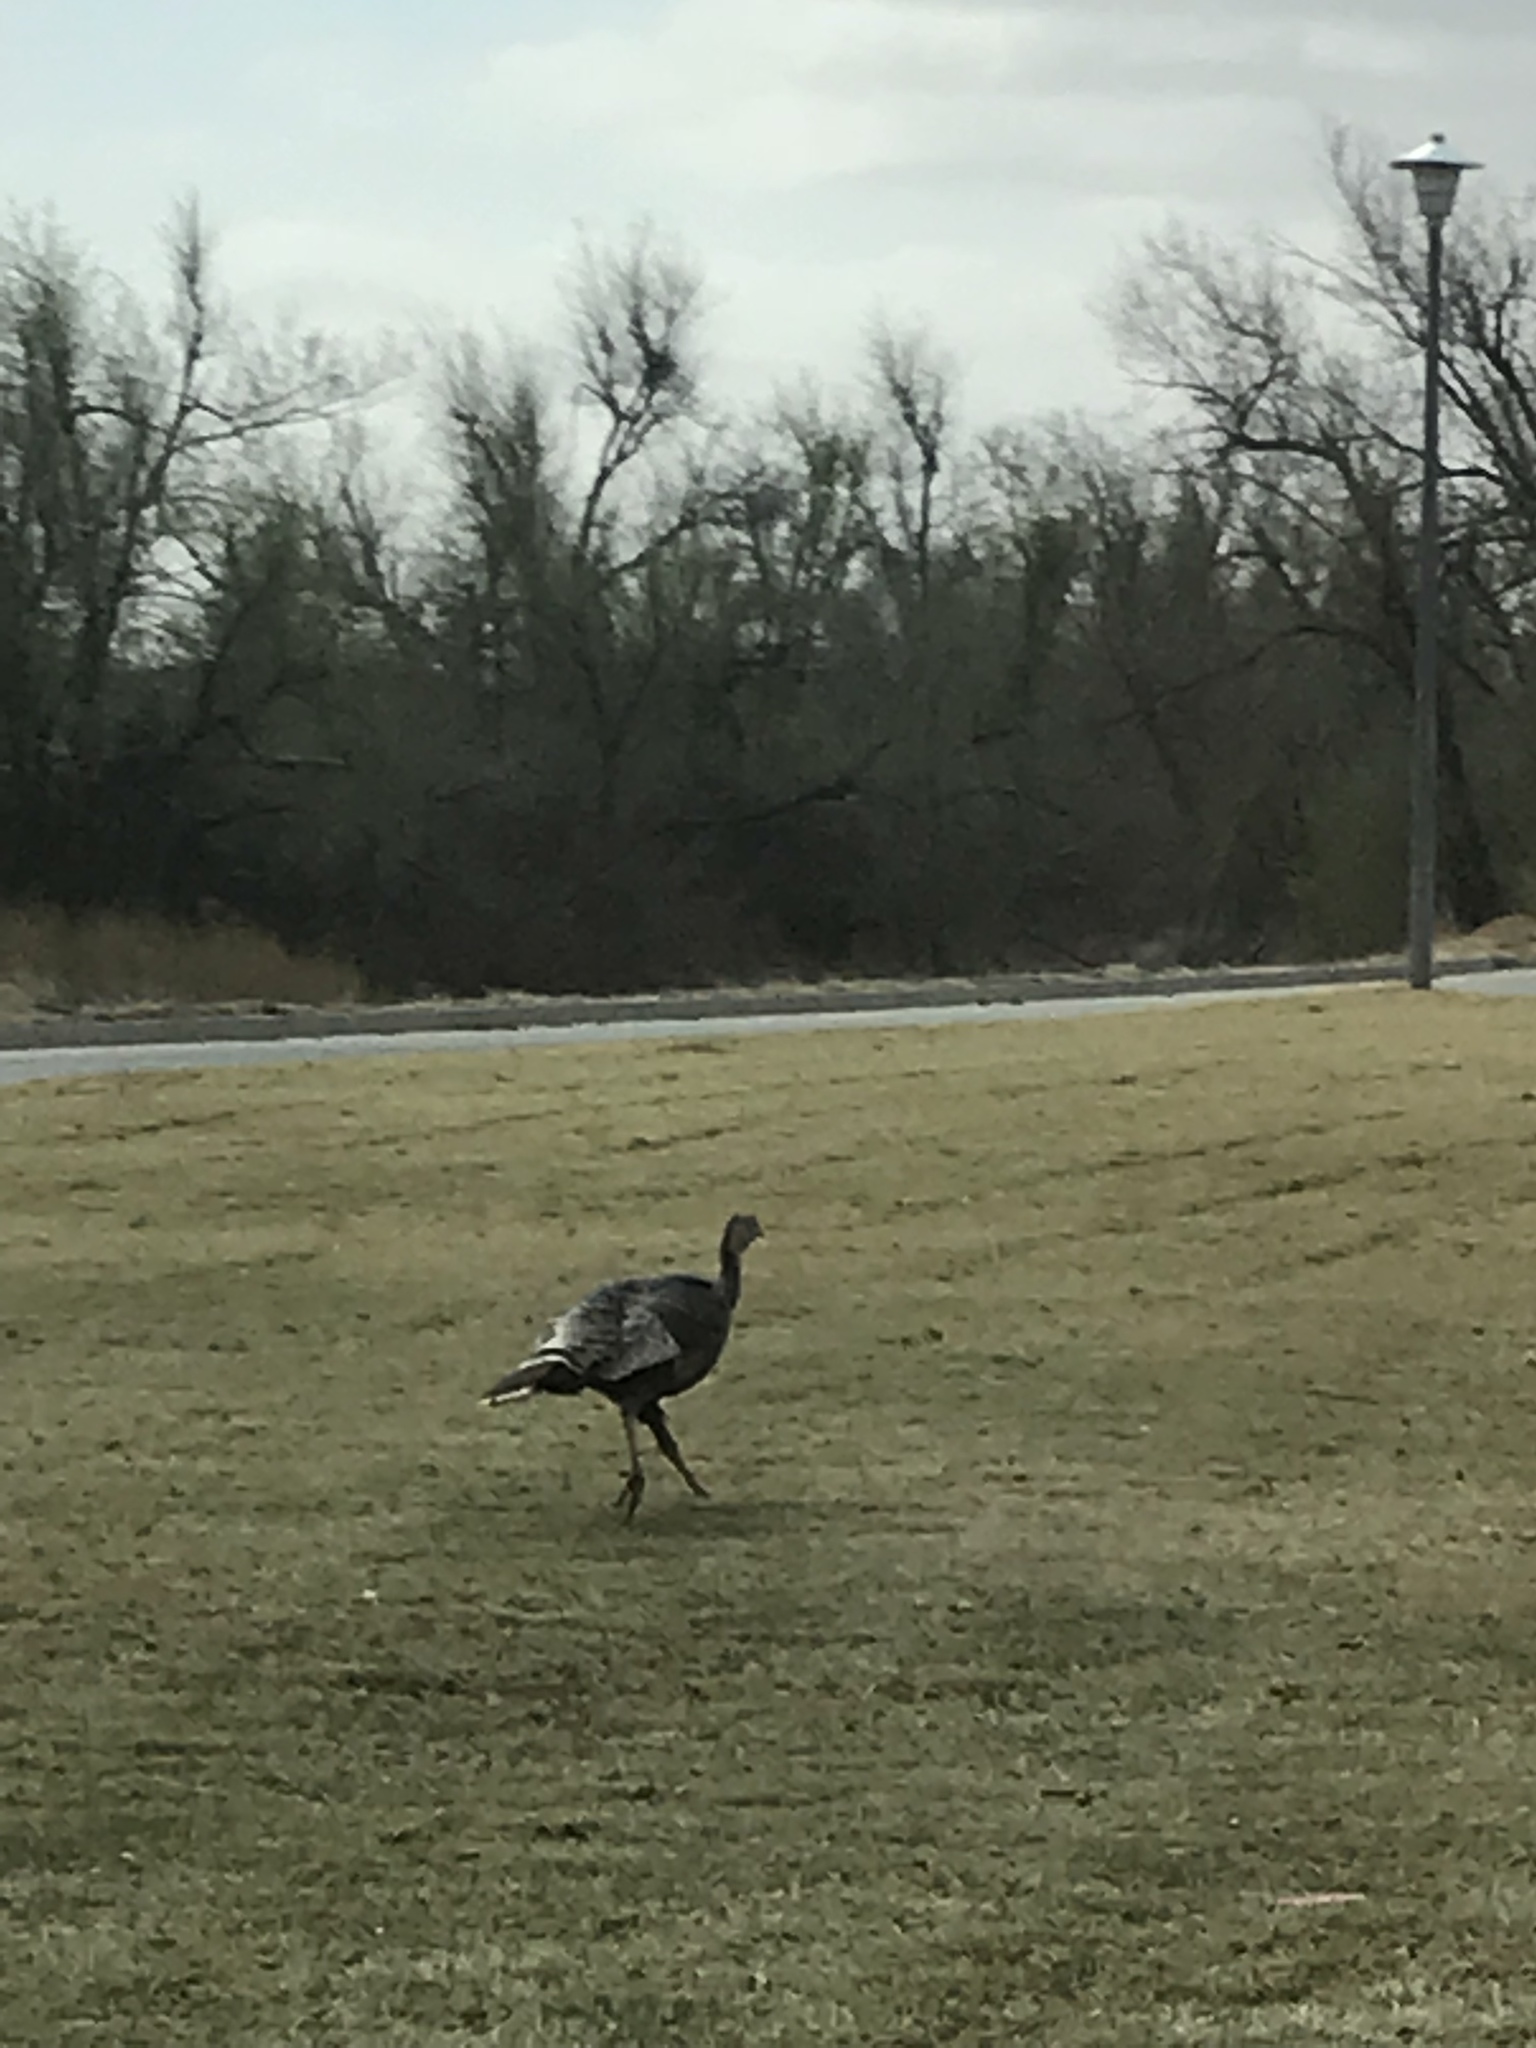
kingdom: Animalia
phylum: Chordata
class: Aves
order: Galliformes
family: Phasianidae
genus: Meleagris
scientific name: Meleagris gallopavo
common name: Wild turkey
